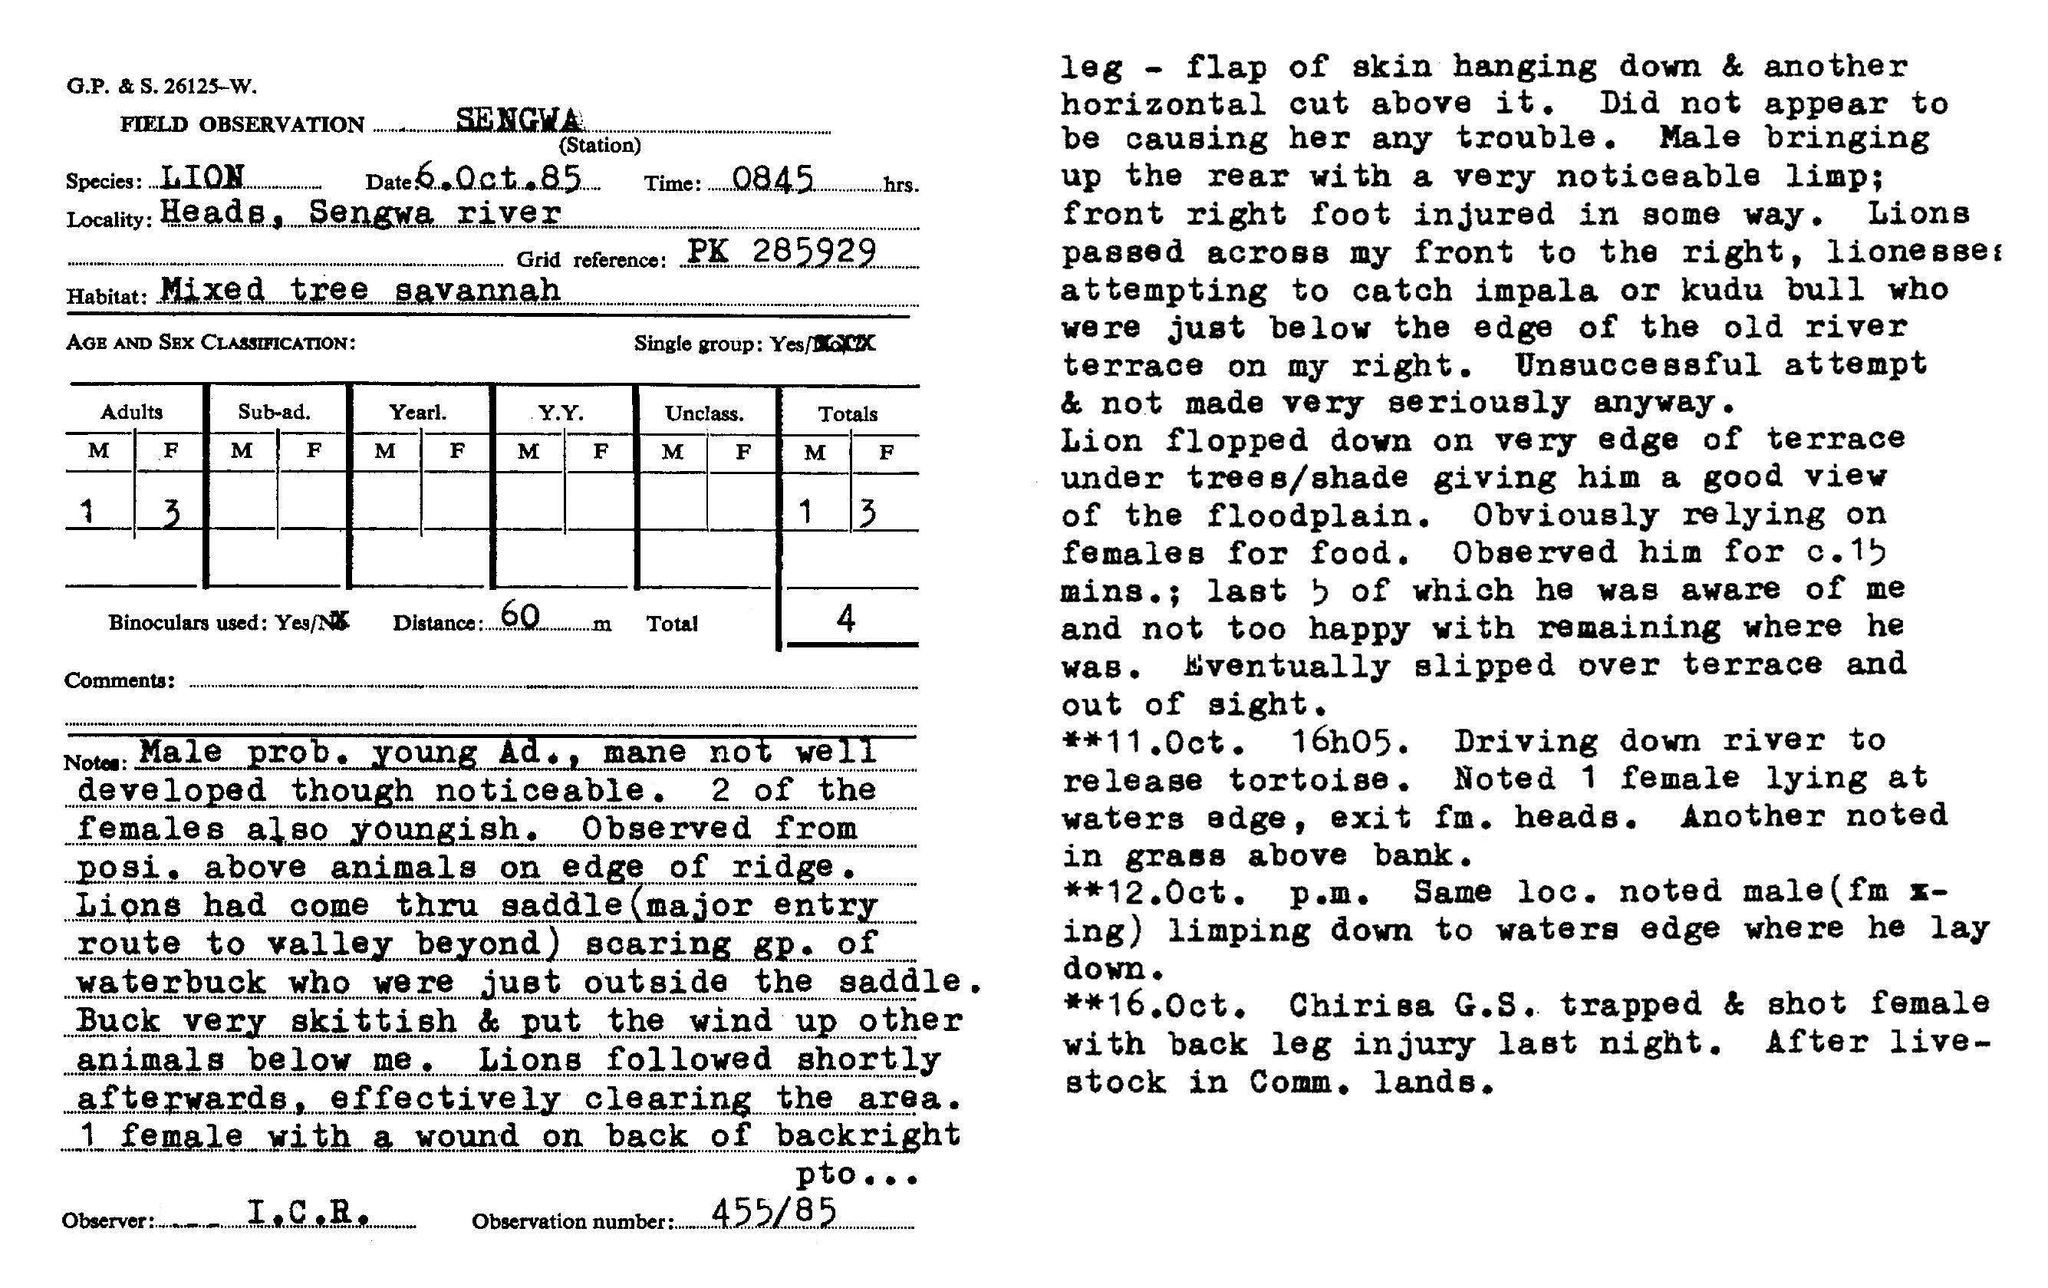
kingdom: Animalia
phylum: Chordata
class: Mammalia
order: Carnivora
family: Felidae
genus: Panthera
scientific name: Panthera leo
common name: Lion
